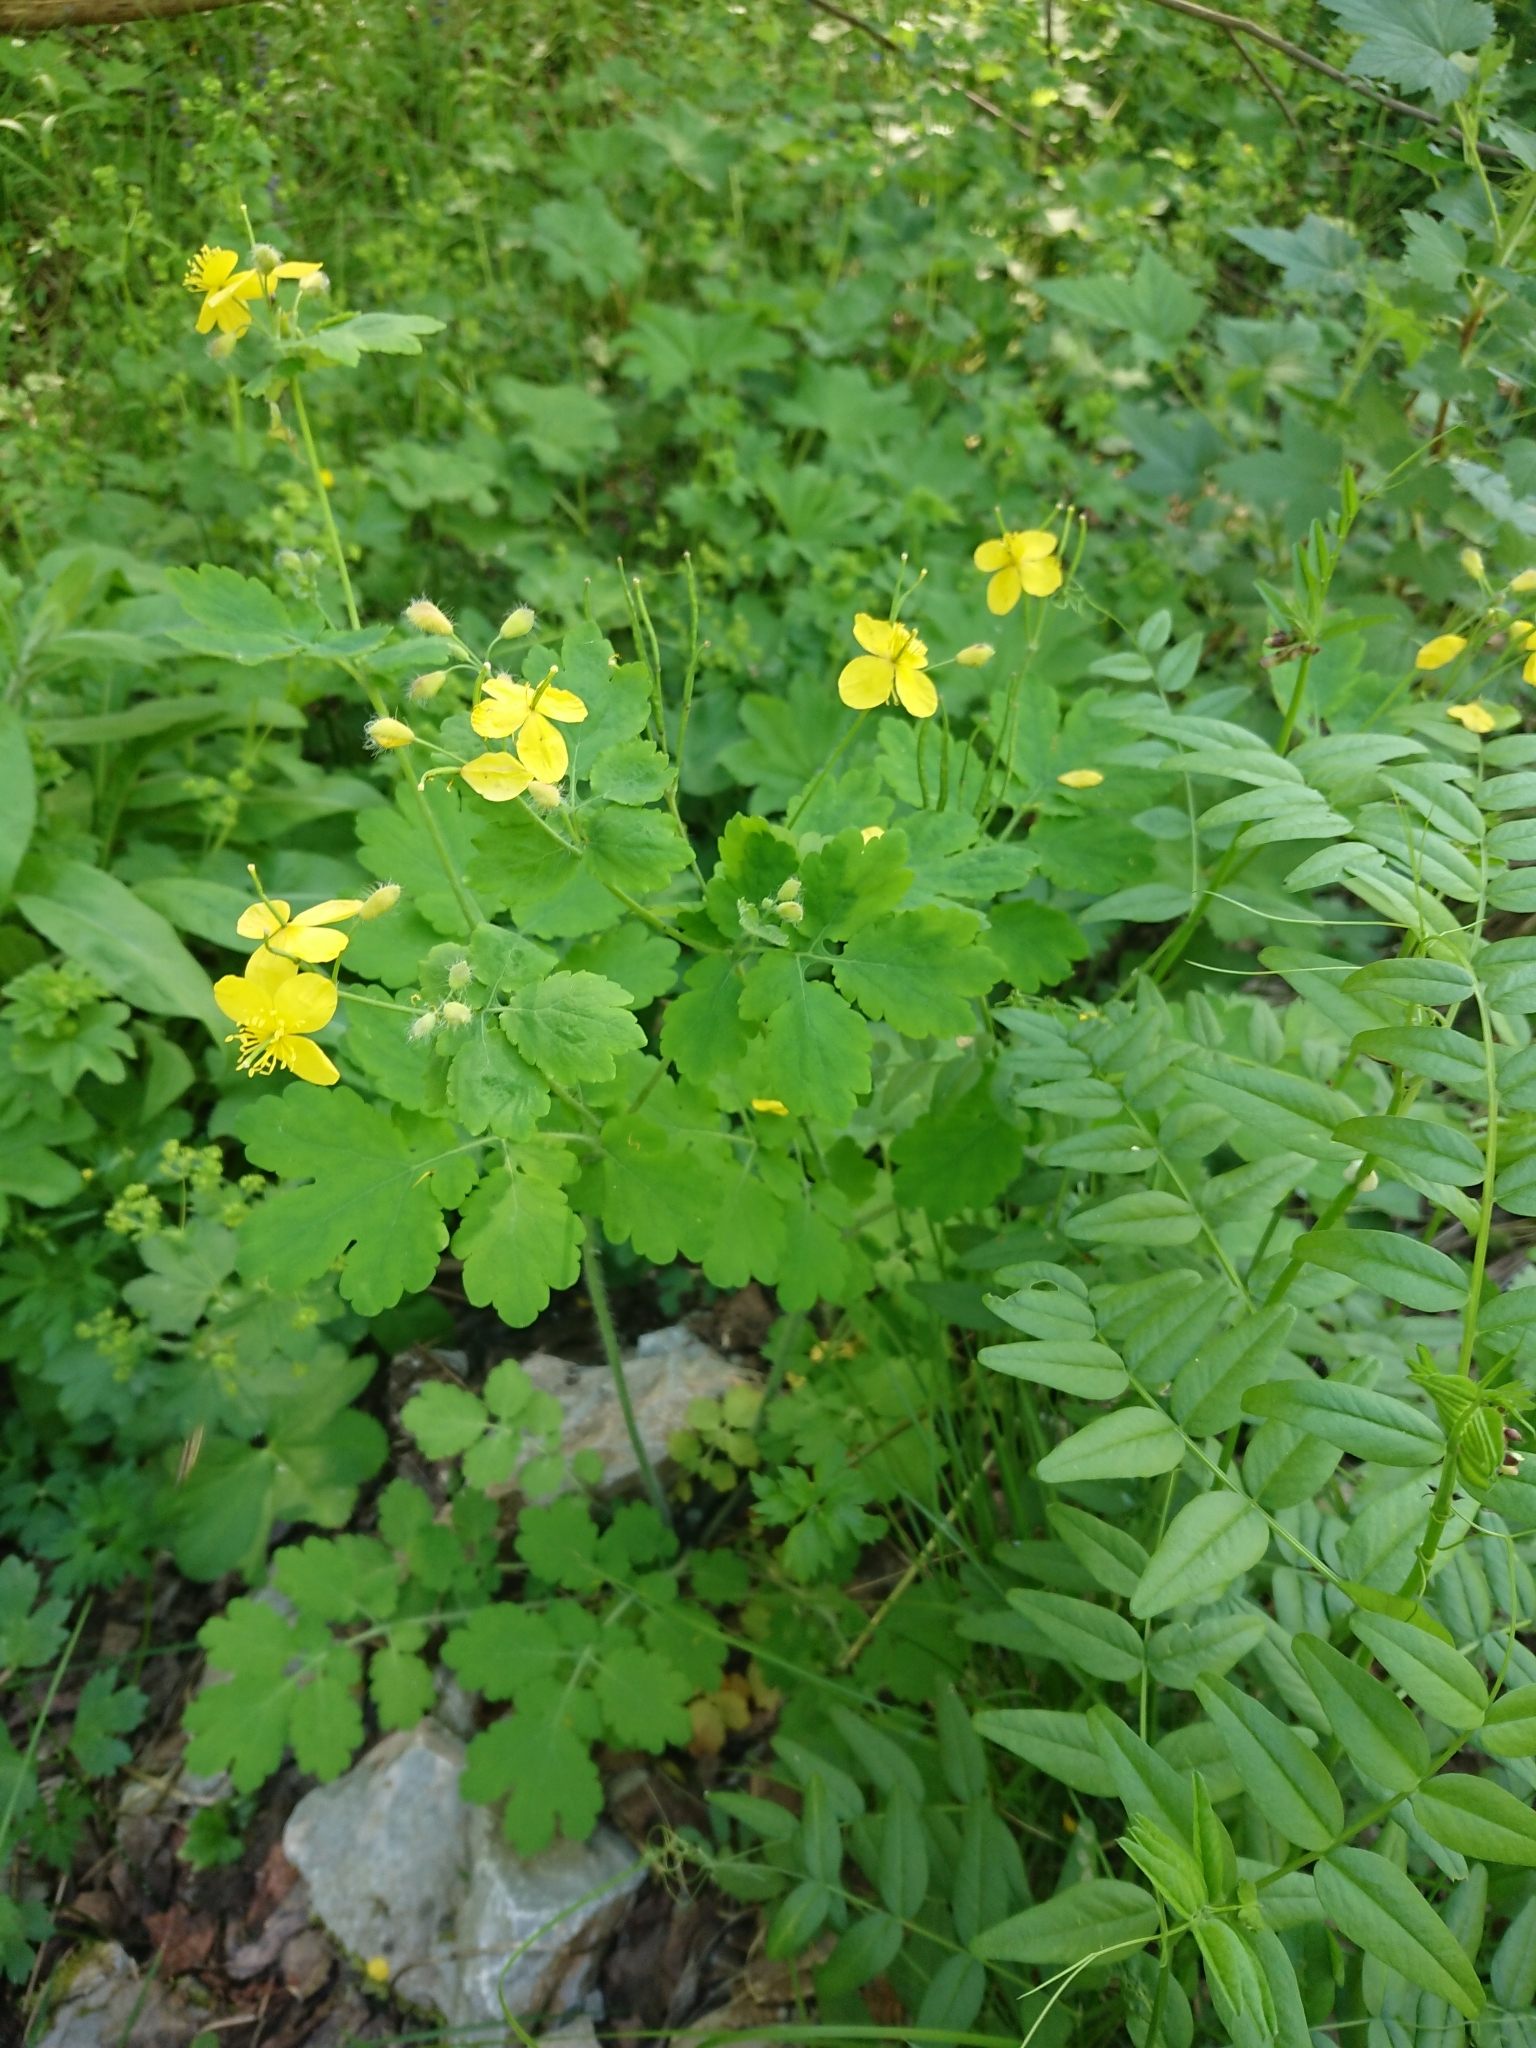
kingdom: Plantae
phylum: Tracheophyta
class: Magnoliopsida
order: Ranunculales
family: Papaveraceae
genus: Chelidonium
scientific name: Chelidonium majus
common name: Greater celandine
